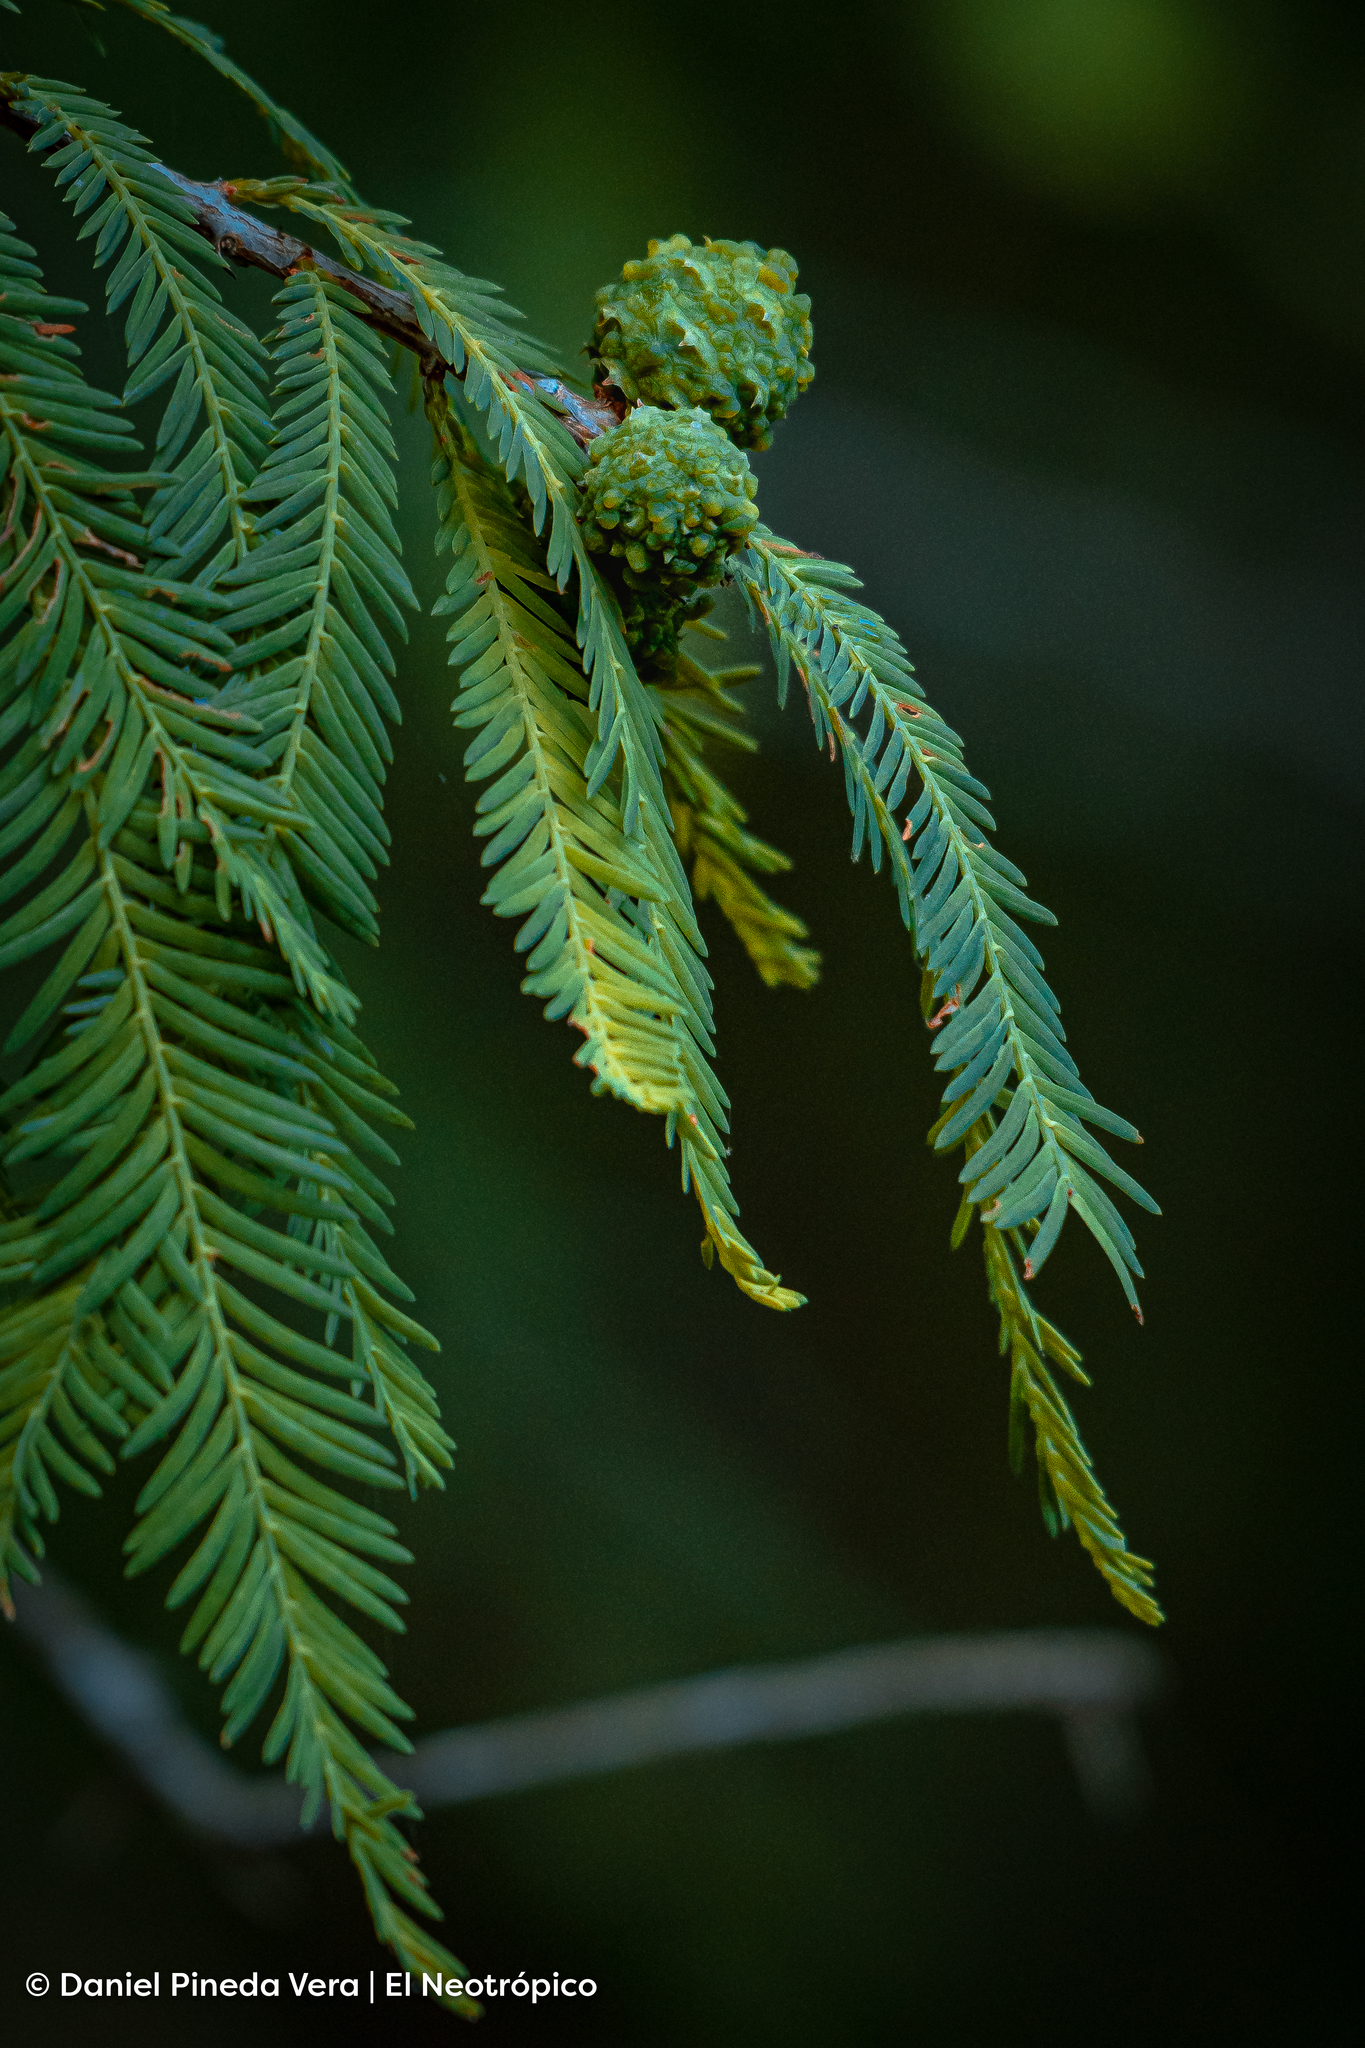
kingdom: Plantae
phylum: Tracheophyta
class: Pinopsida
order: Pinales
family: Cupressaceae
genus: Taxodium
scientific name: Taxodium mucronatum
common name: Montezume bald cypress
